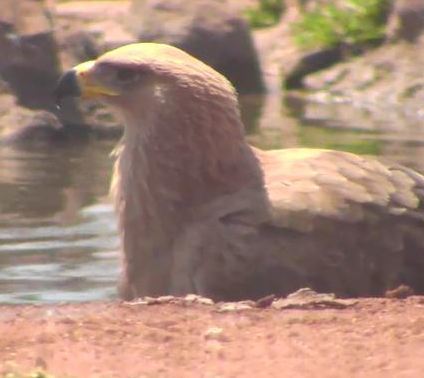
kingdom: Animalia
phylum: Chordata
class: Aves
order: Accipitriformes
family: Accipitridae
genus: Aquila
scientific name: Aquila rapax
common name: Tawny eagle
